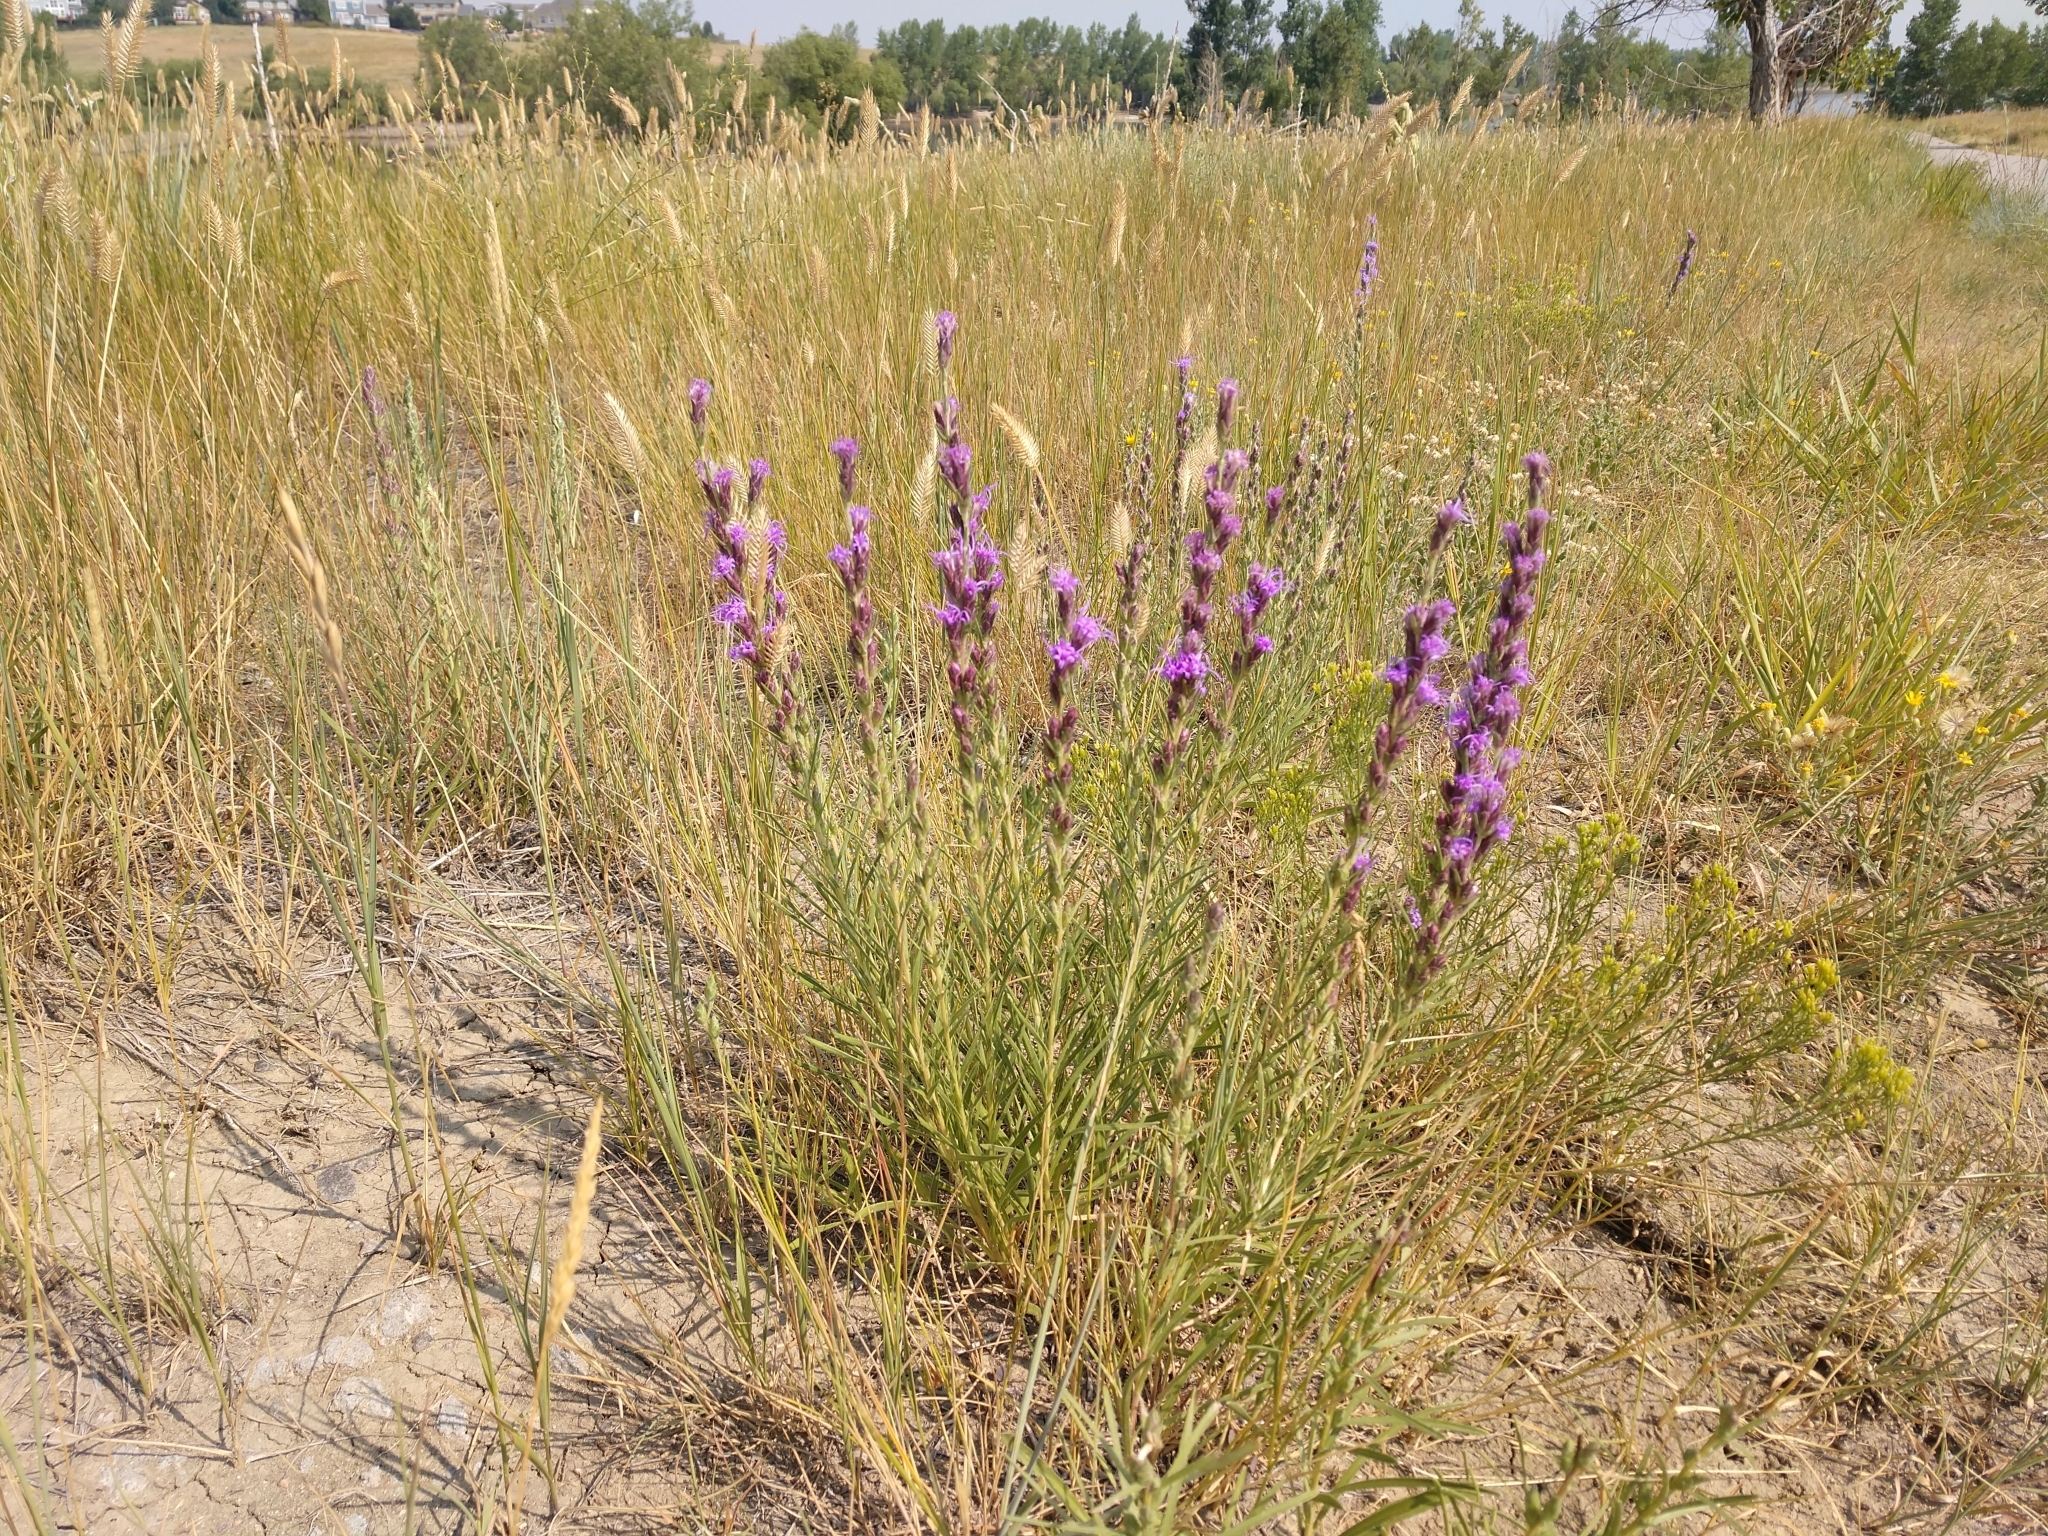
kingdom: Plantae
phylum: Tracheophyta
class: Magnoliopsida
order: Asterales
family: Asteraceae
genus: Liatris
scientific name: Liatris punctata
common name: Dotted gayfeather
